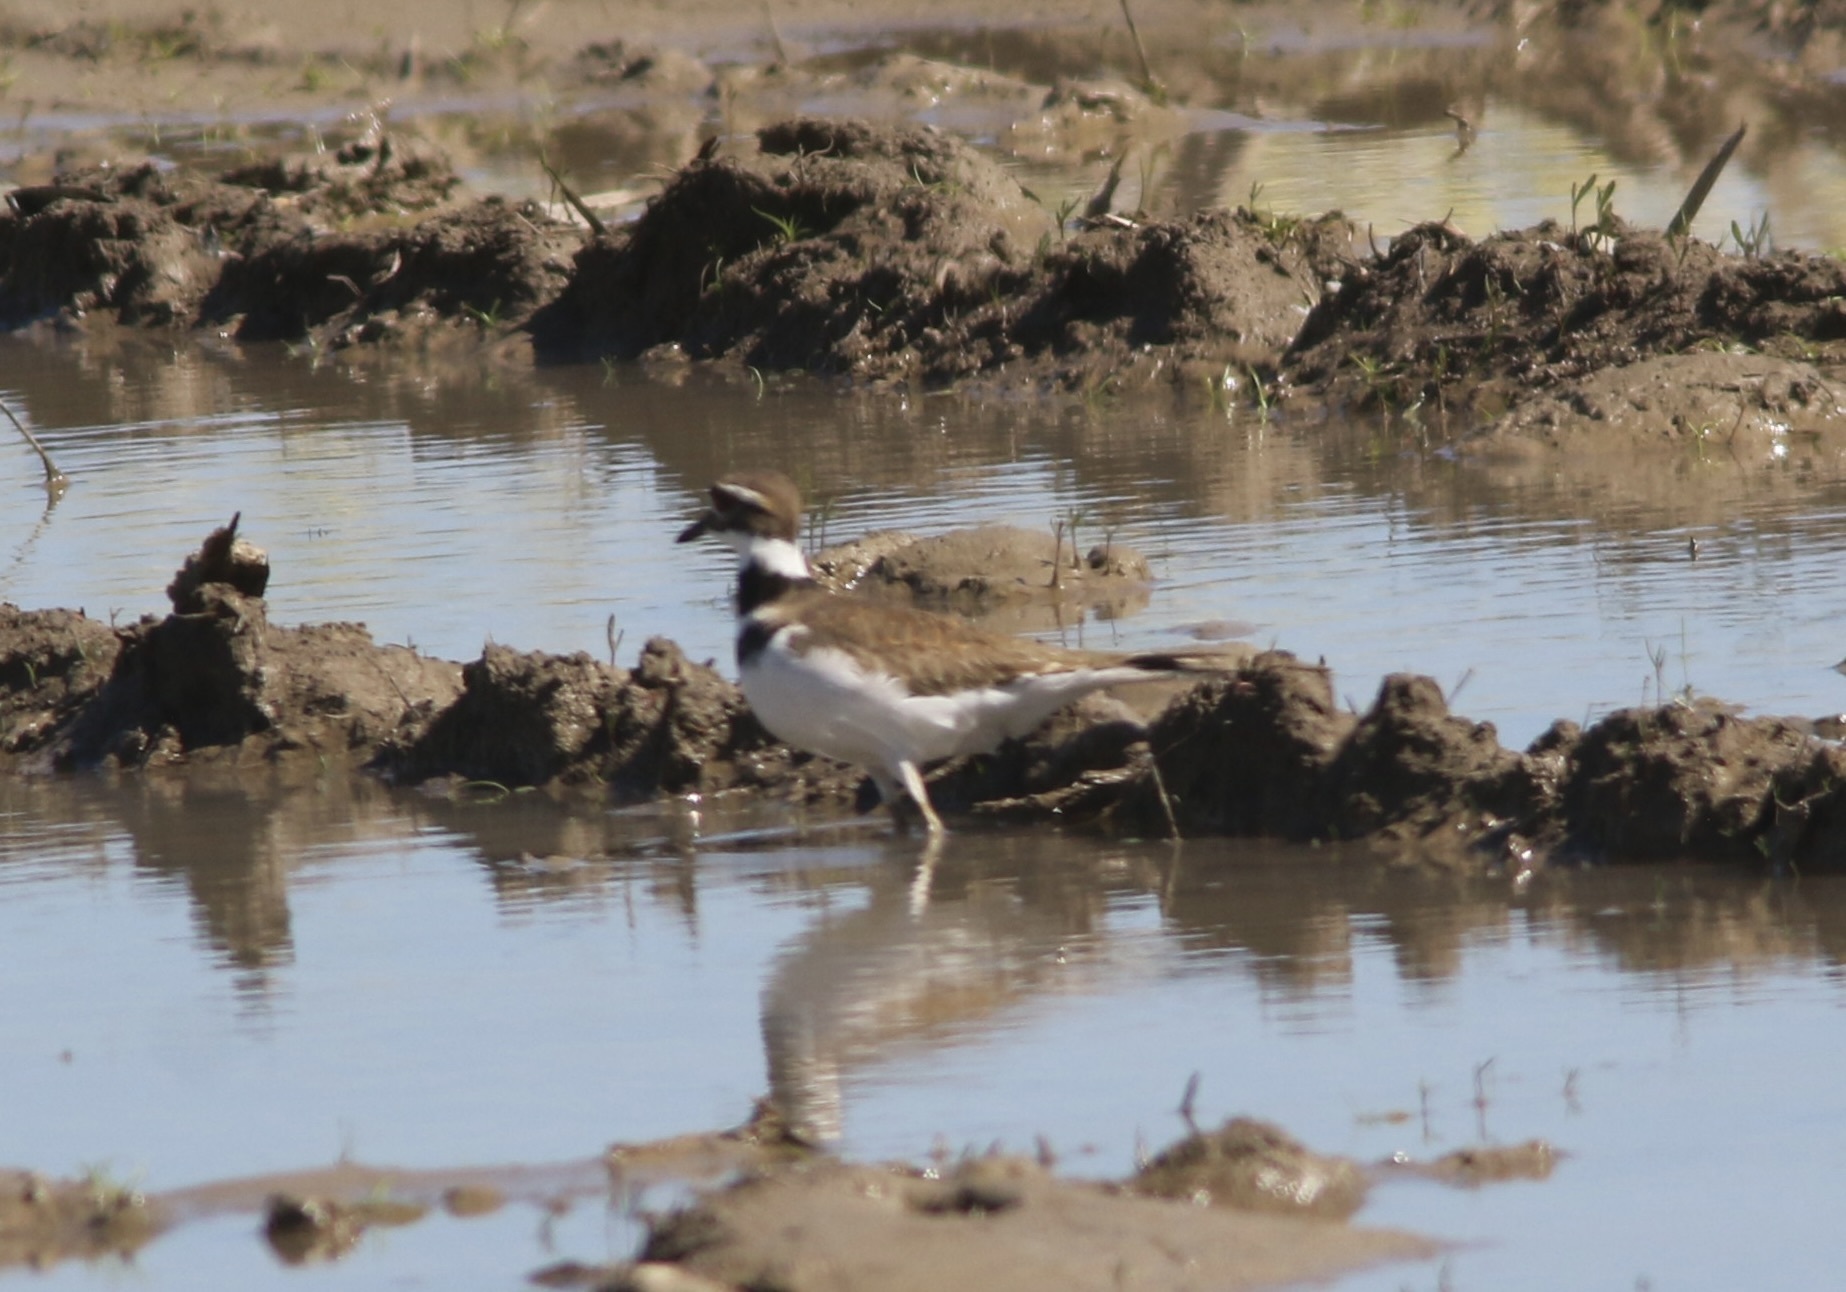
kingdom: Animalia
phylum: Chordata
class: Aves
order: Charadriiformes
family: Charadriidae
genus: Charadrius
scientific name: Charadrius vociferus
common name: Killdeer
